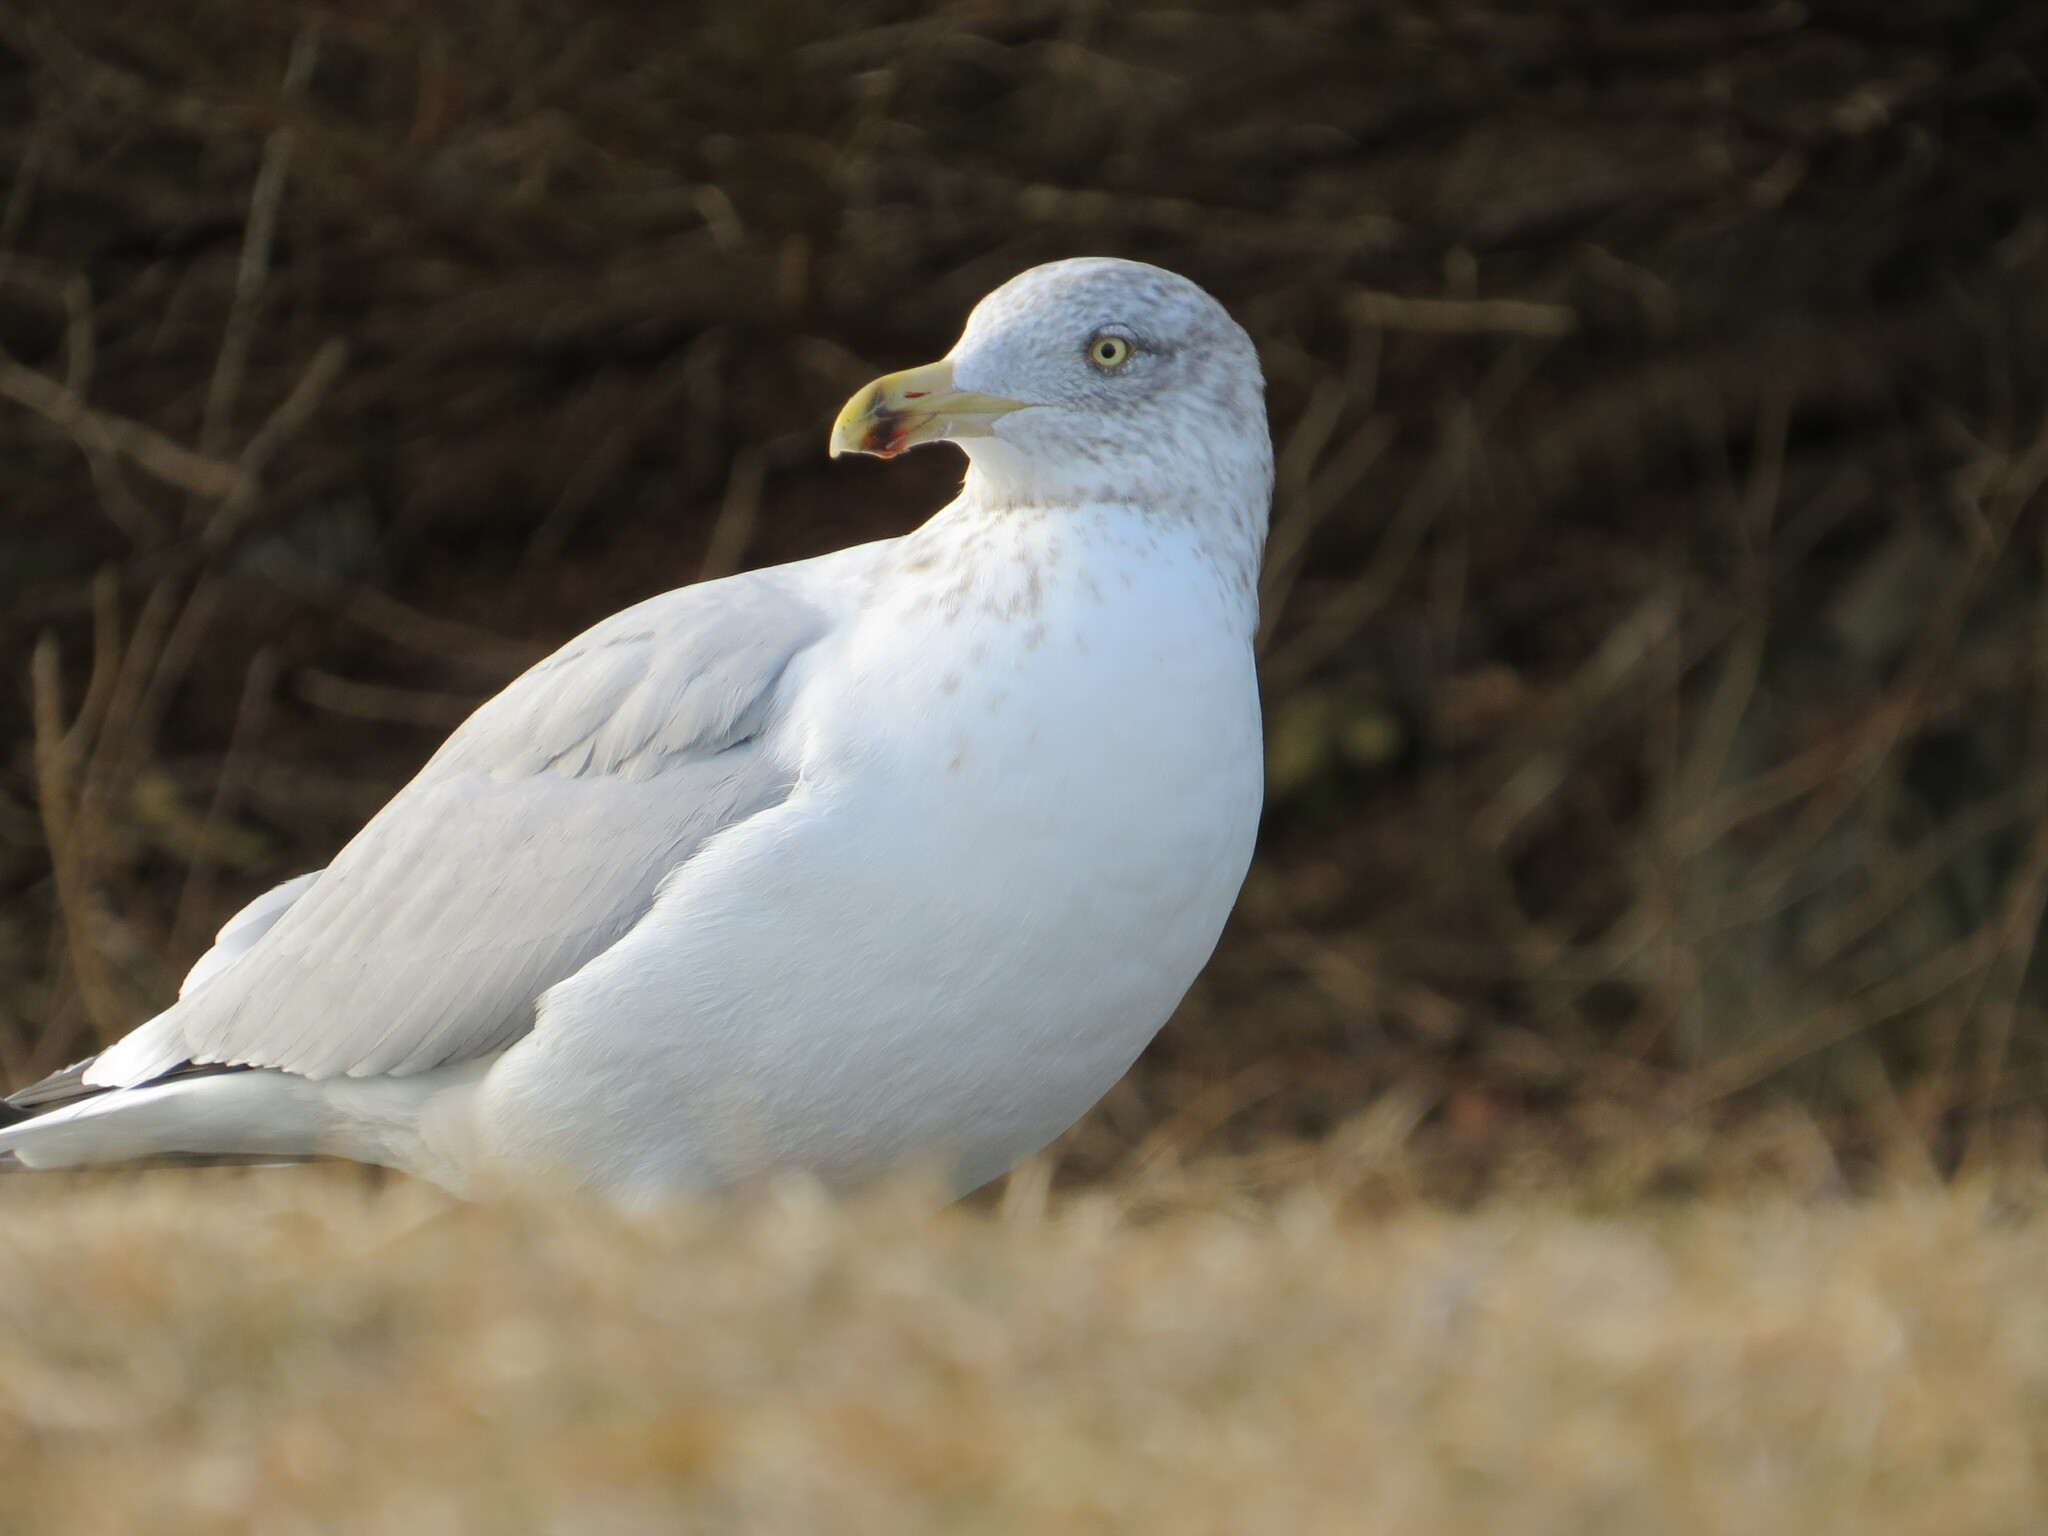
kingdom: Animalia
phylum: Chordata
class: Aves
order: Charadriiformes
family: Laridae
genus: Larus
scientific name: Larus argentatus
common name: Herring gull
